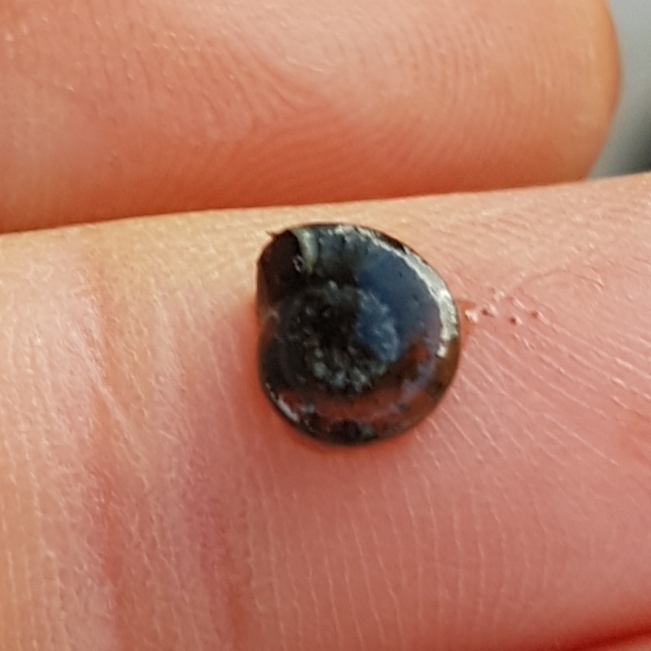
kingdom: Animalia
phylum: Mollusca
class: Gastropoda
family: Planorbidae
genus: Planorbis
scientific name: Planorbis planorbis
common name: Margined ramshorn
